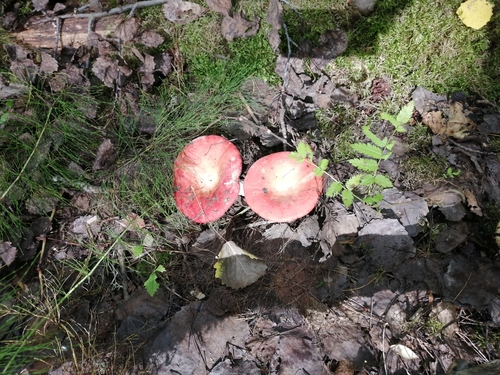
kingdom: Fungi
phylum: Basidiomycota
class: Agaricomycetes
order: Russulales
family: Russulaceae
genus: Russula
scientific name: Russula sanguinea
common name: Bloody brittlegill
